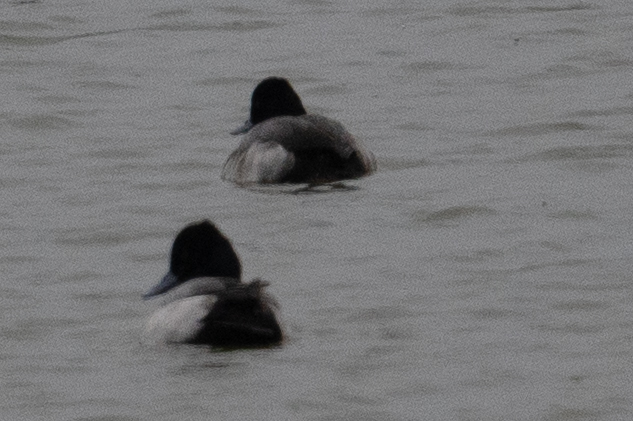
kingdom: Animalia
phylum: Chordata
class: Aves
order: Anseriformes
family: Anatidae
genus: Aythya
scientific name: Aythya affinis
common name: Lesser scaup
